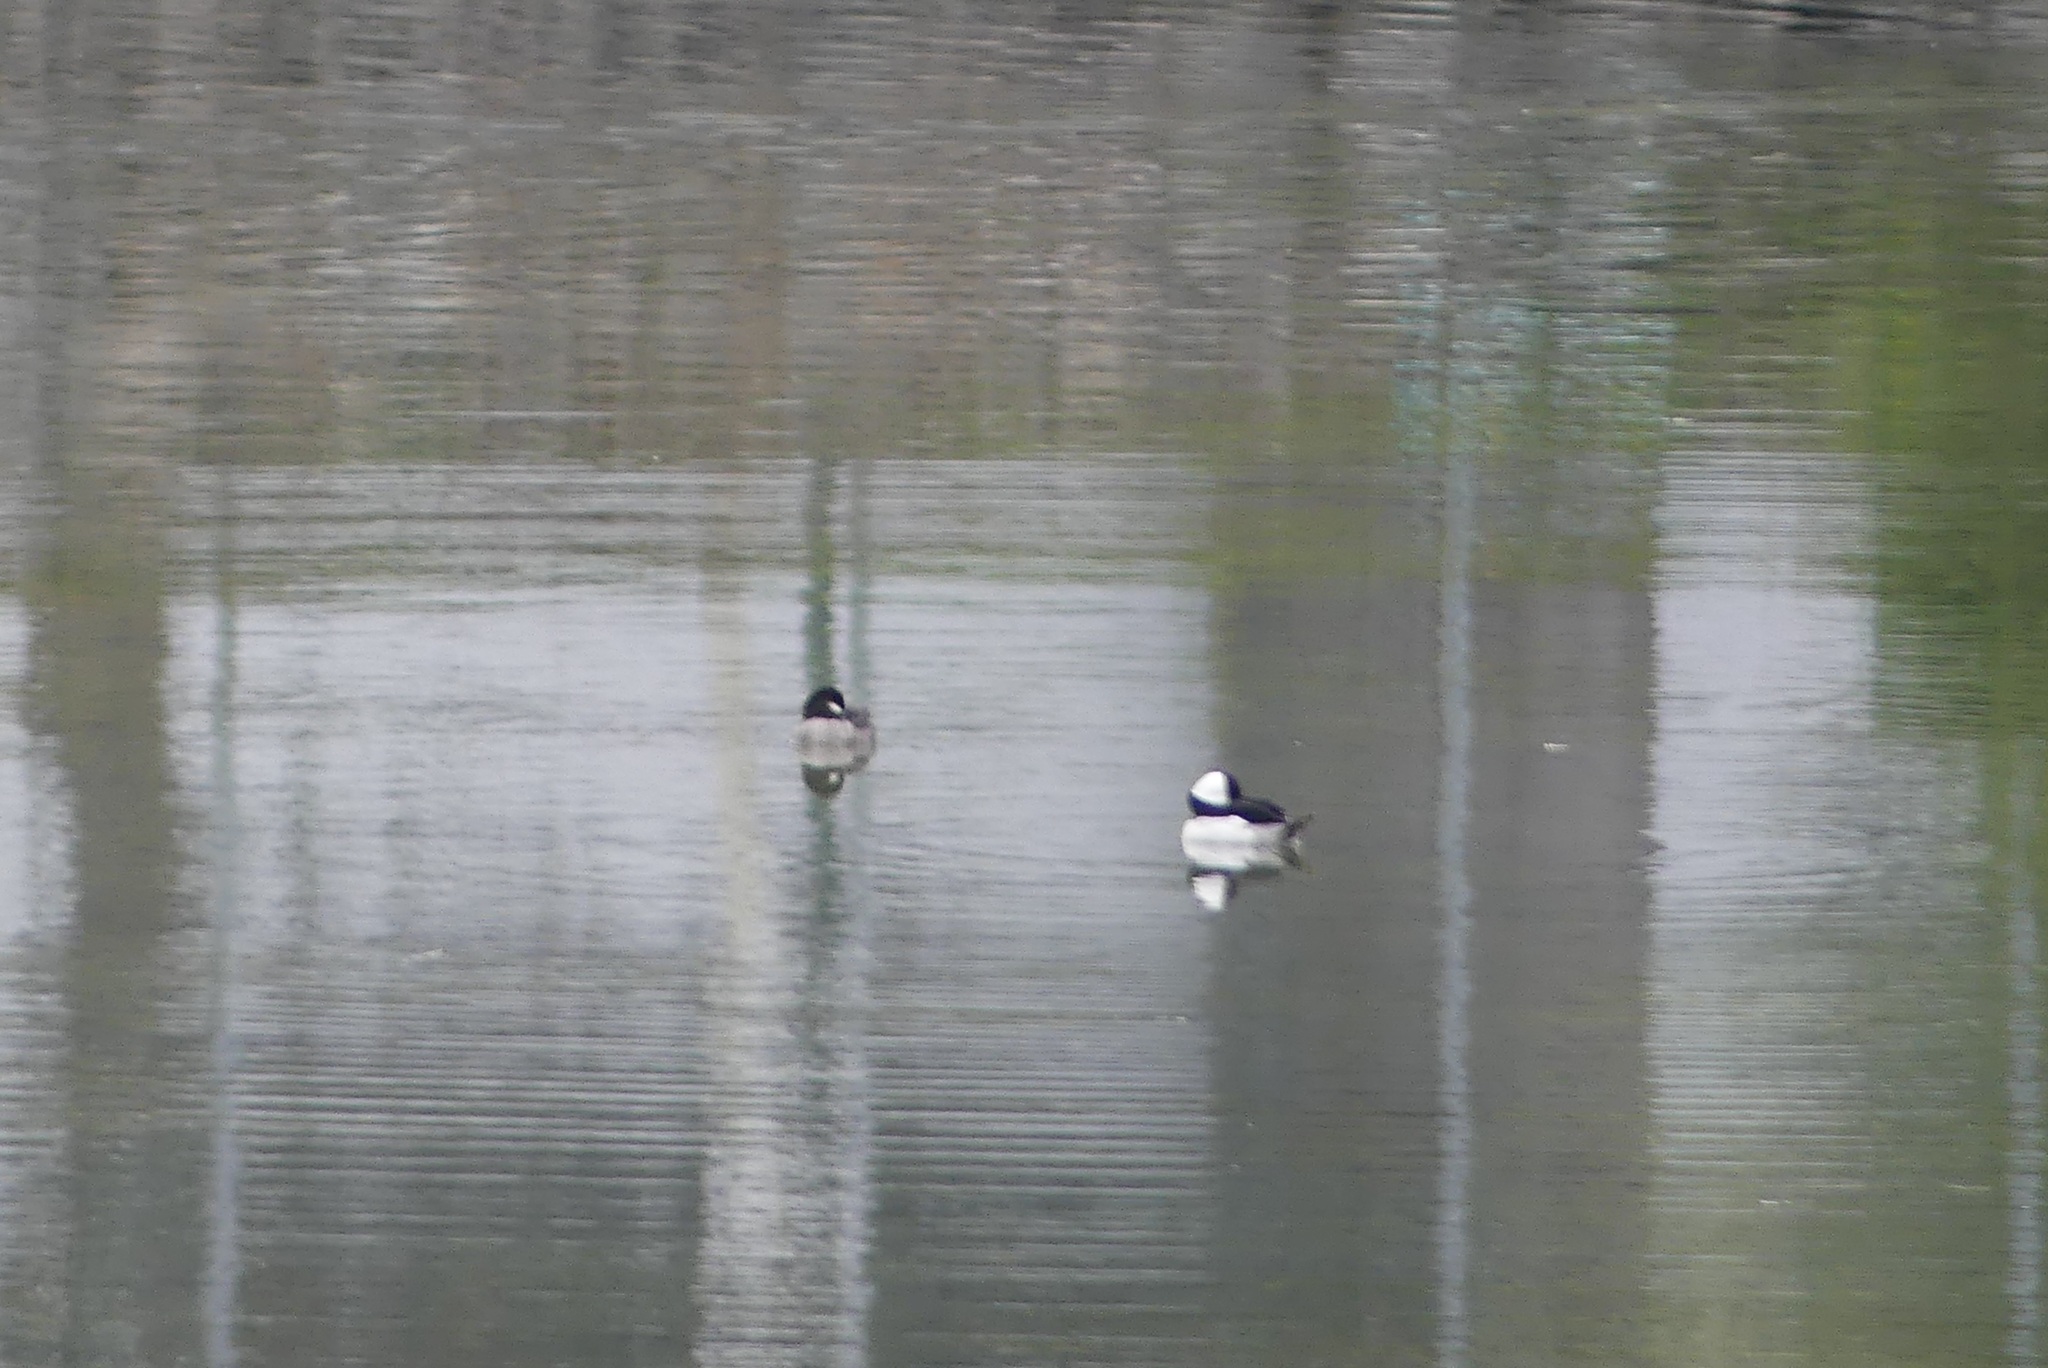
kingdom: Animalia
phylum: Chordata
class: Aves
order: Anseriformes
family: Anatidae
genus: Bucephala
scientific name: Bucephala albeola
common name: Bufflehead
